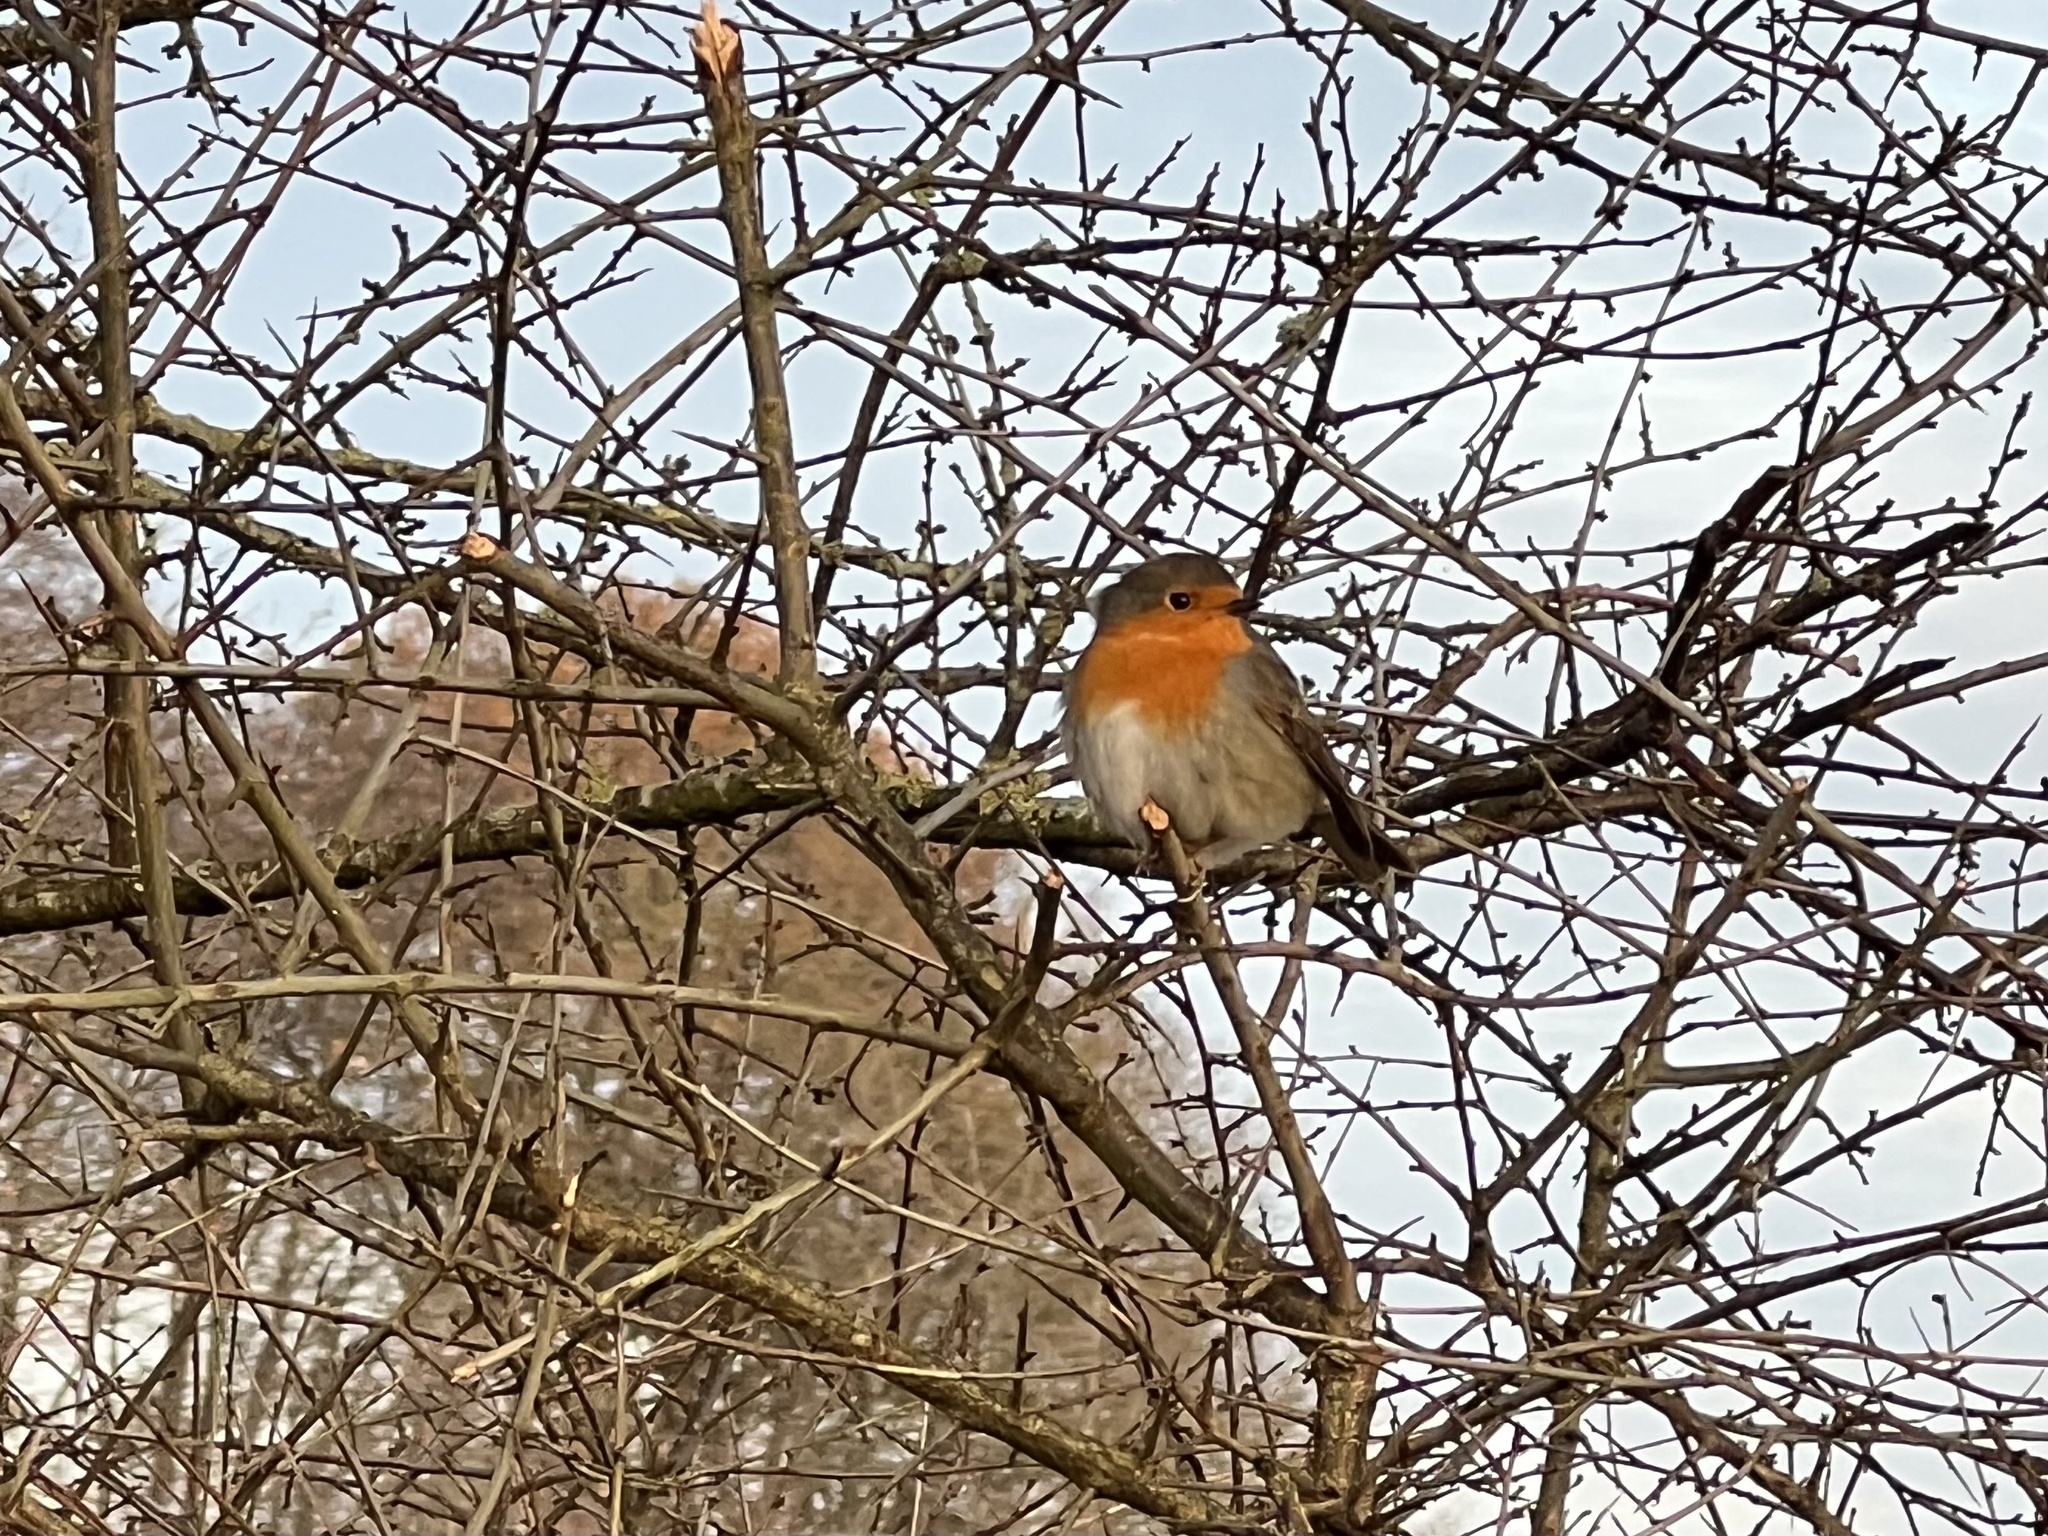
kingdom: Animalia
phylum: Chordata
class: Aves
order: Passeriformes
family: Muscicapidae
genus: Erithacus
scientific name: Erithacus rubecula
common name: European robin
